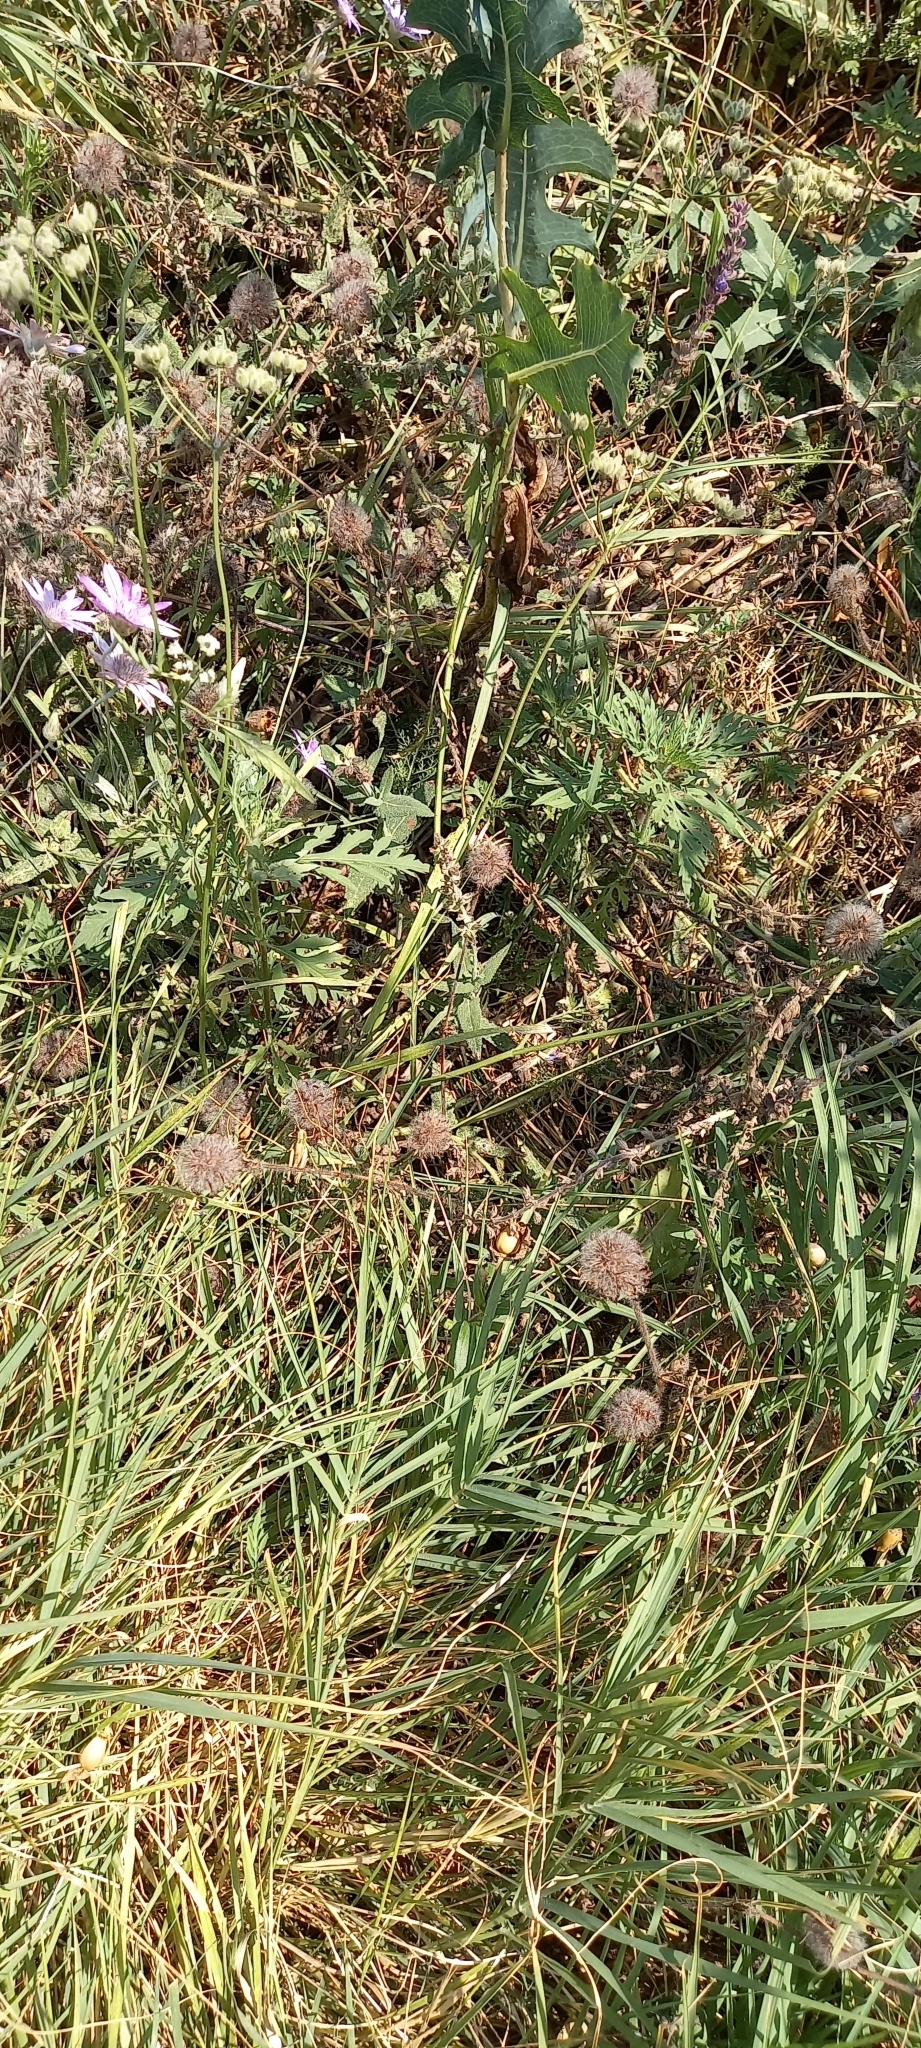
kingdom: Plantae
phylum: Tracheophyta
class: Magnoliopsida
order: Fabales
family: Fabaceae
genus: Trifolium
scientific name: Trifolium diffusum
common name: Diffuse clover
